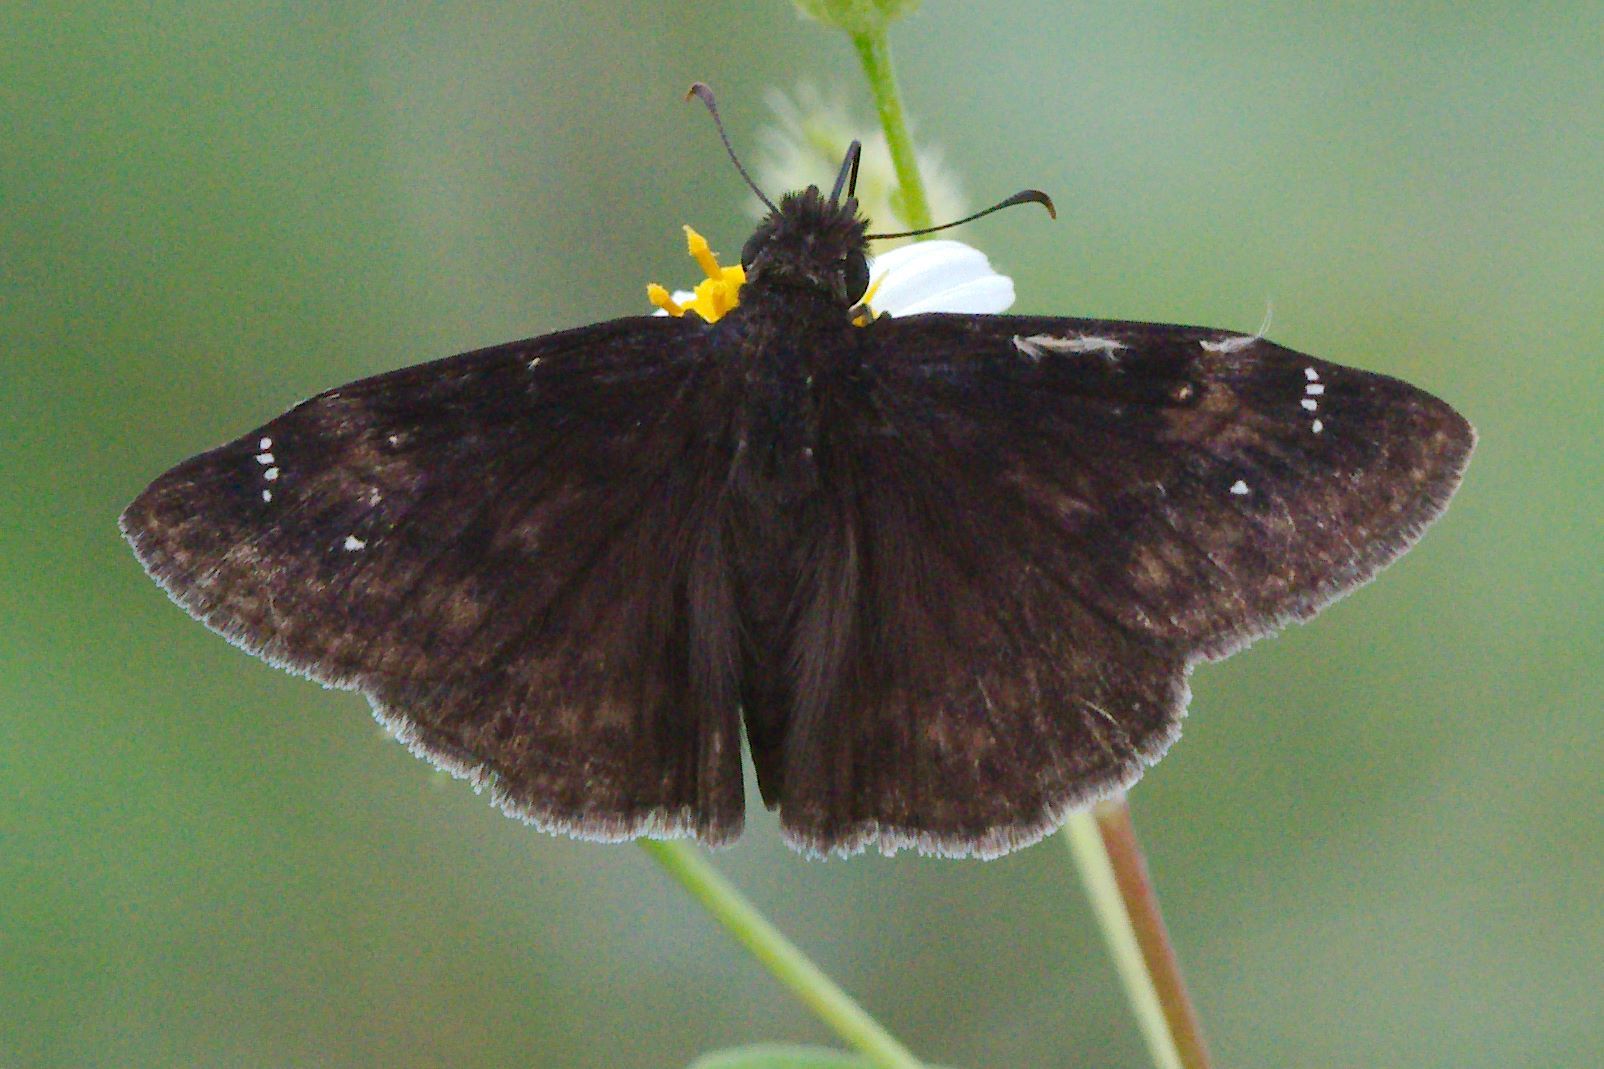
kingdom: Animalia
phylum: Arthropoda
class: Insecta
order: Lepidoptera
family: Hesperiidae
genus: Erynnis
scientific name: Erynnis zarucco
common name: Zarucco duskywing
